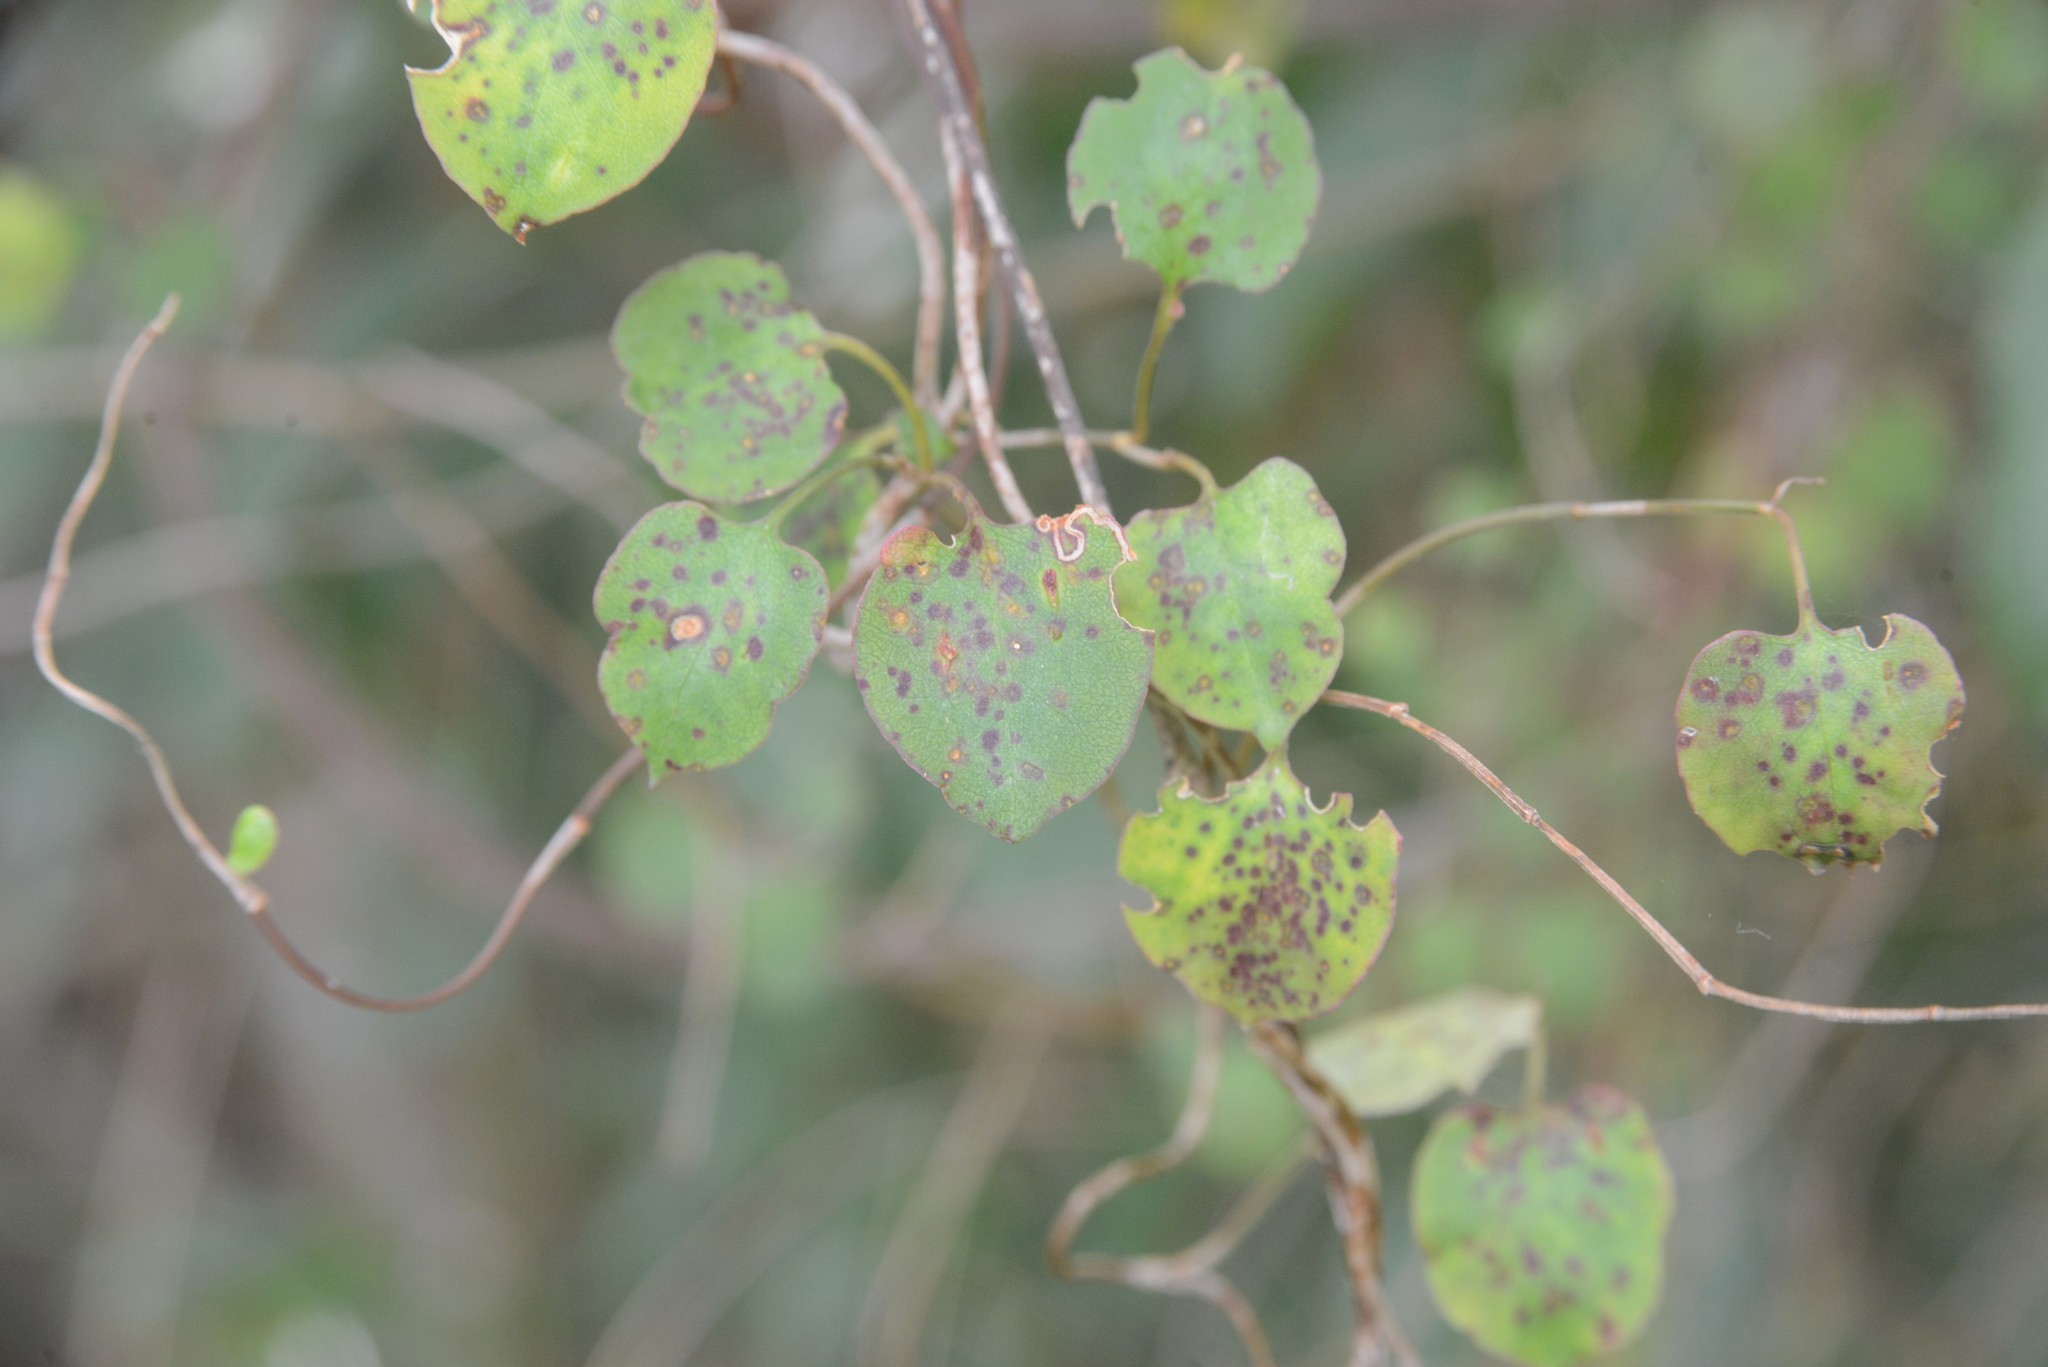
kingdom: Plantae
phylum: Tracheophyta
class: Magnoliopsida
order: Caryophyllales
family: Polygonaceae
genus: Muehlenbeckia
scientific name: Muehlenbeckia australis
